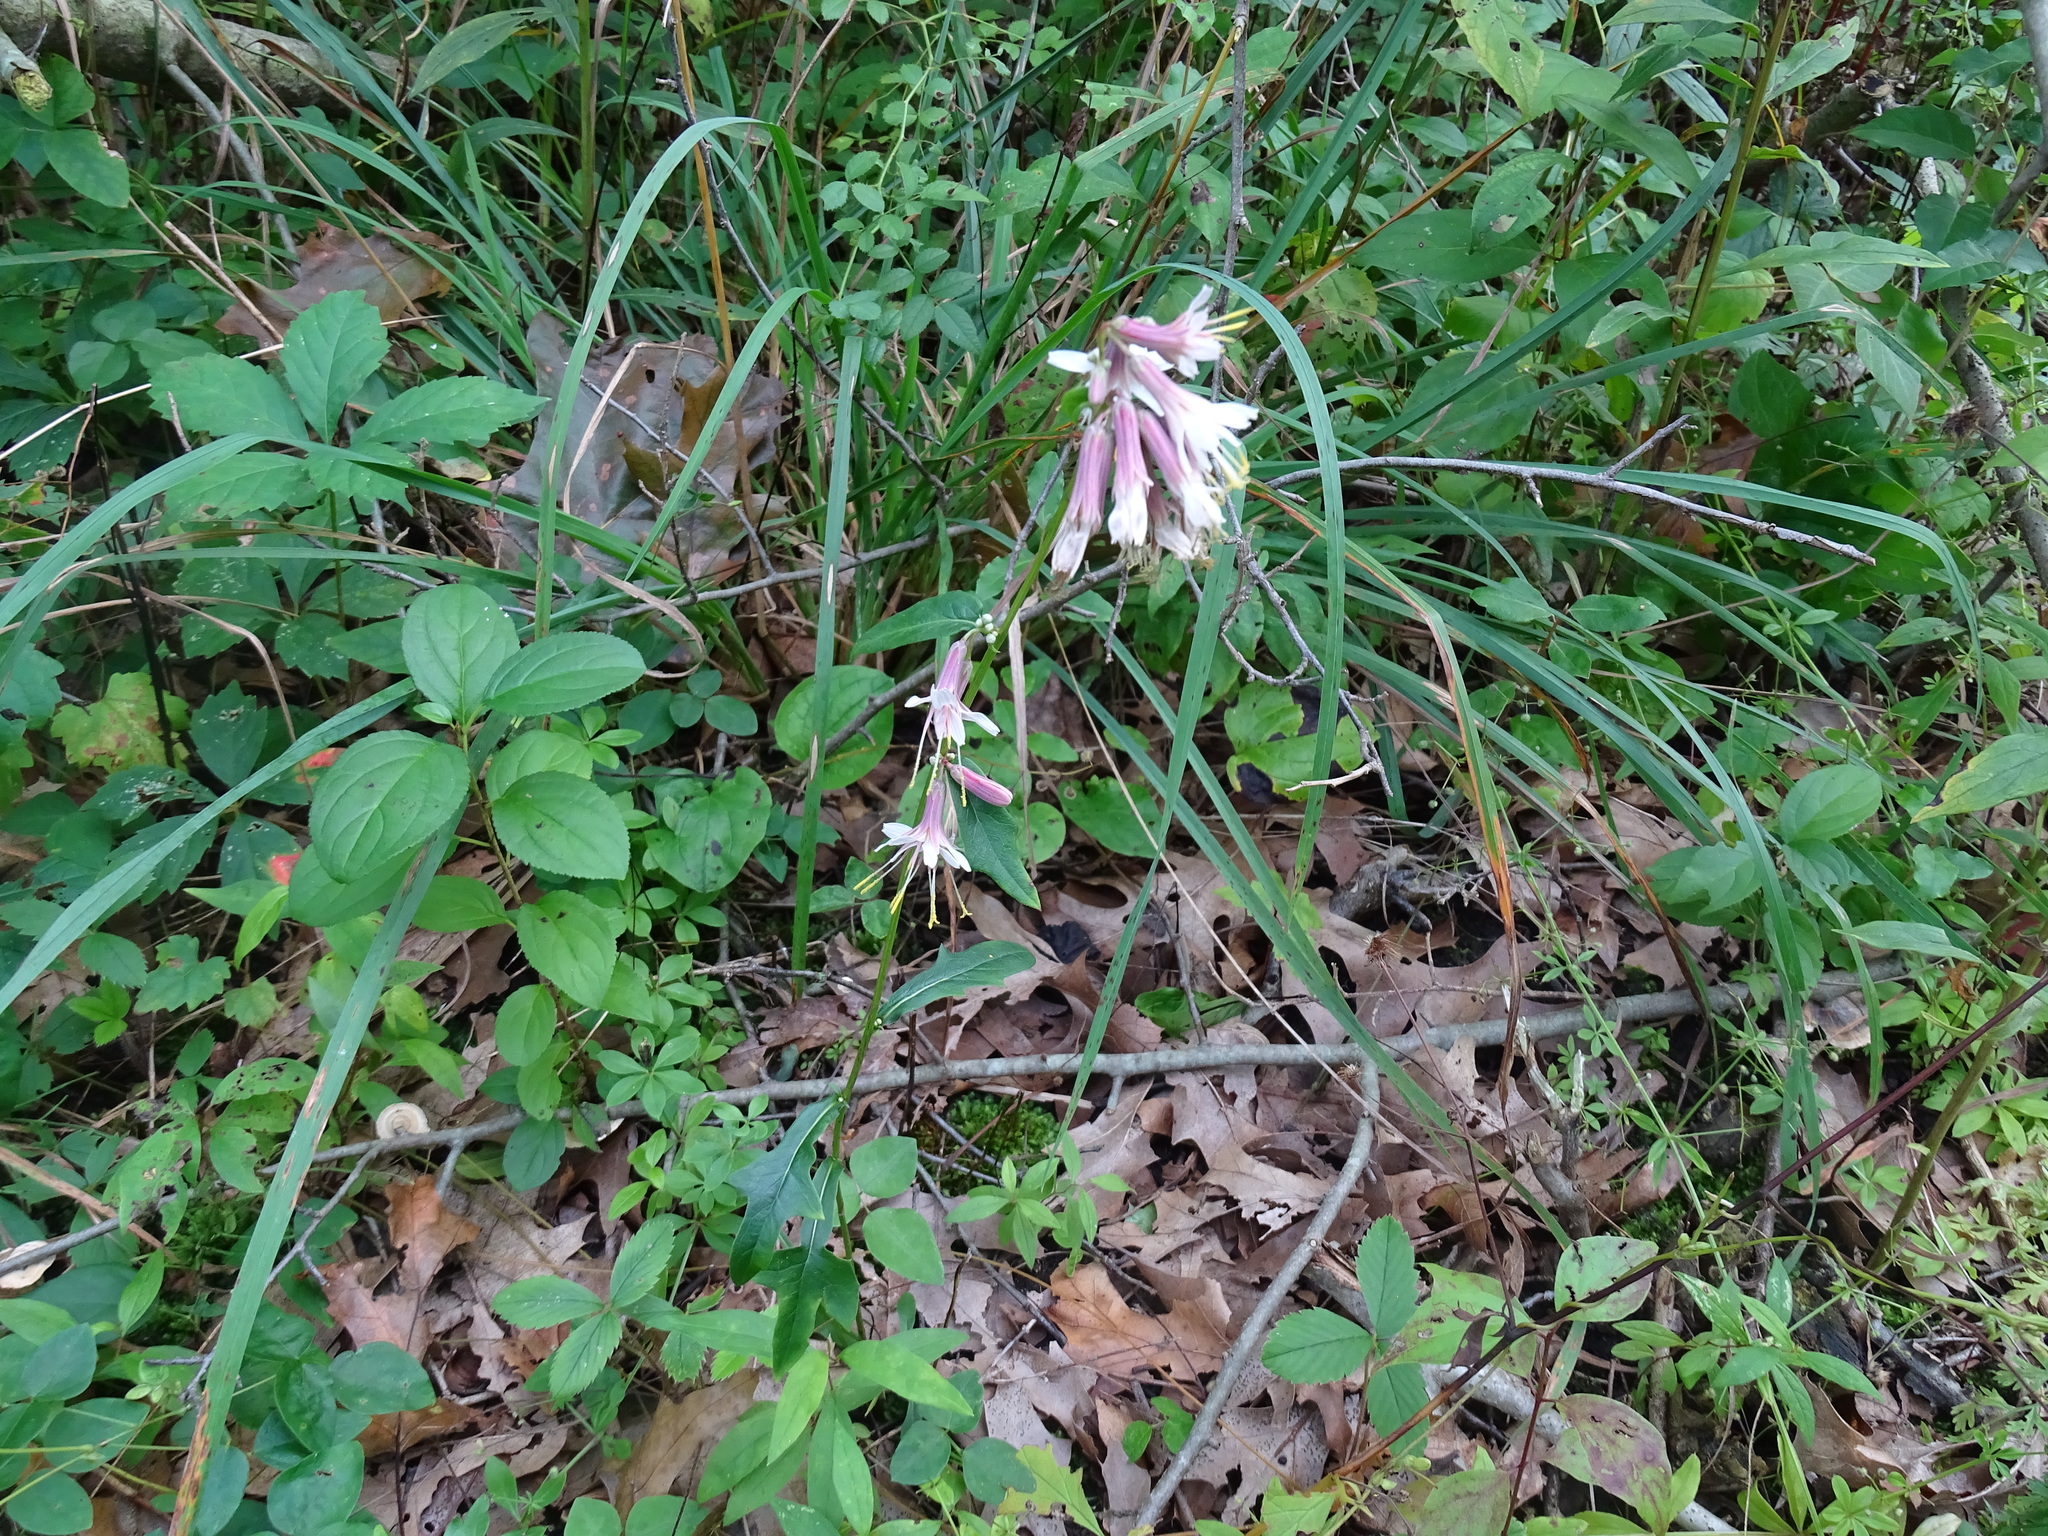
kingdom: Plantae
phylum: Tracheophyta
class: Magnoliopsida
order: Asterales
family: Asteraceae
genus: Nabalus
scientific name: Nabalus albus
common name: White rattlesnakeroot
